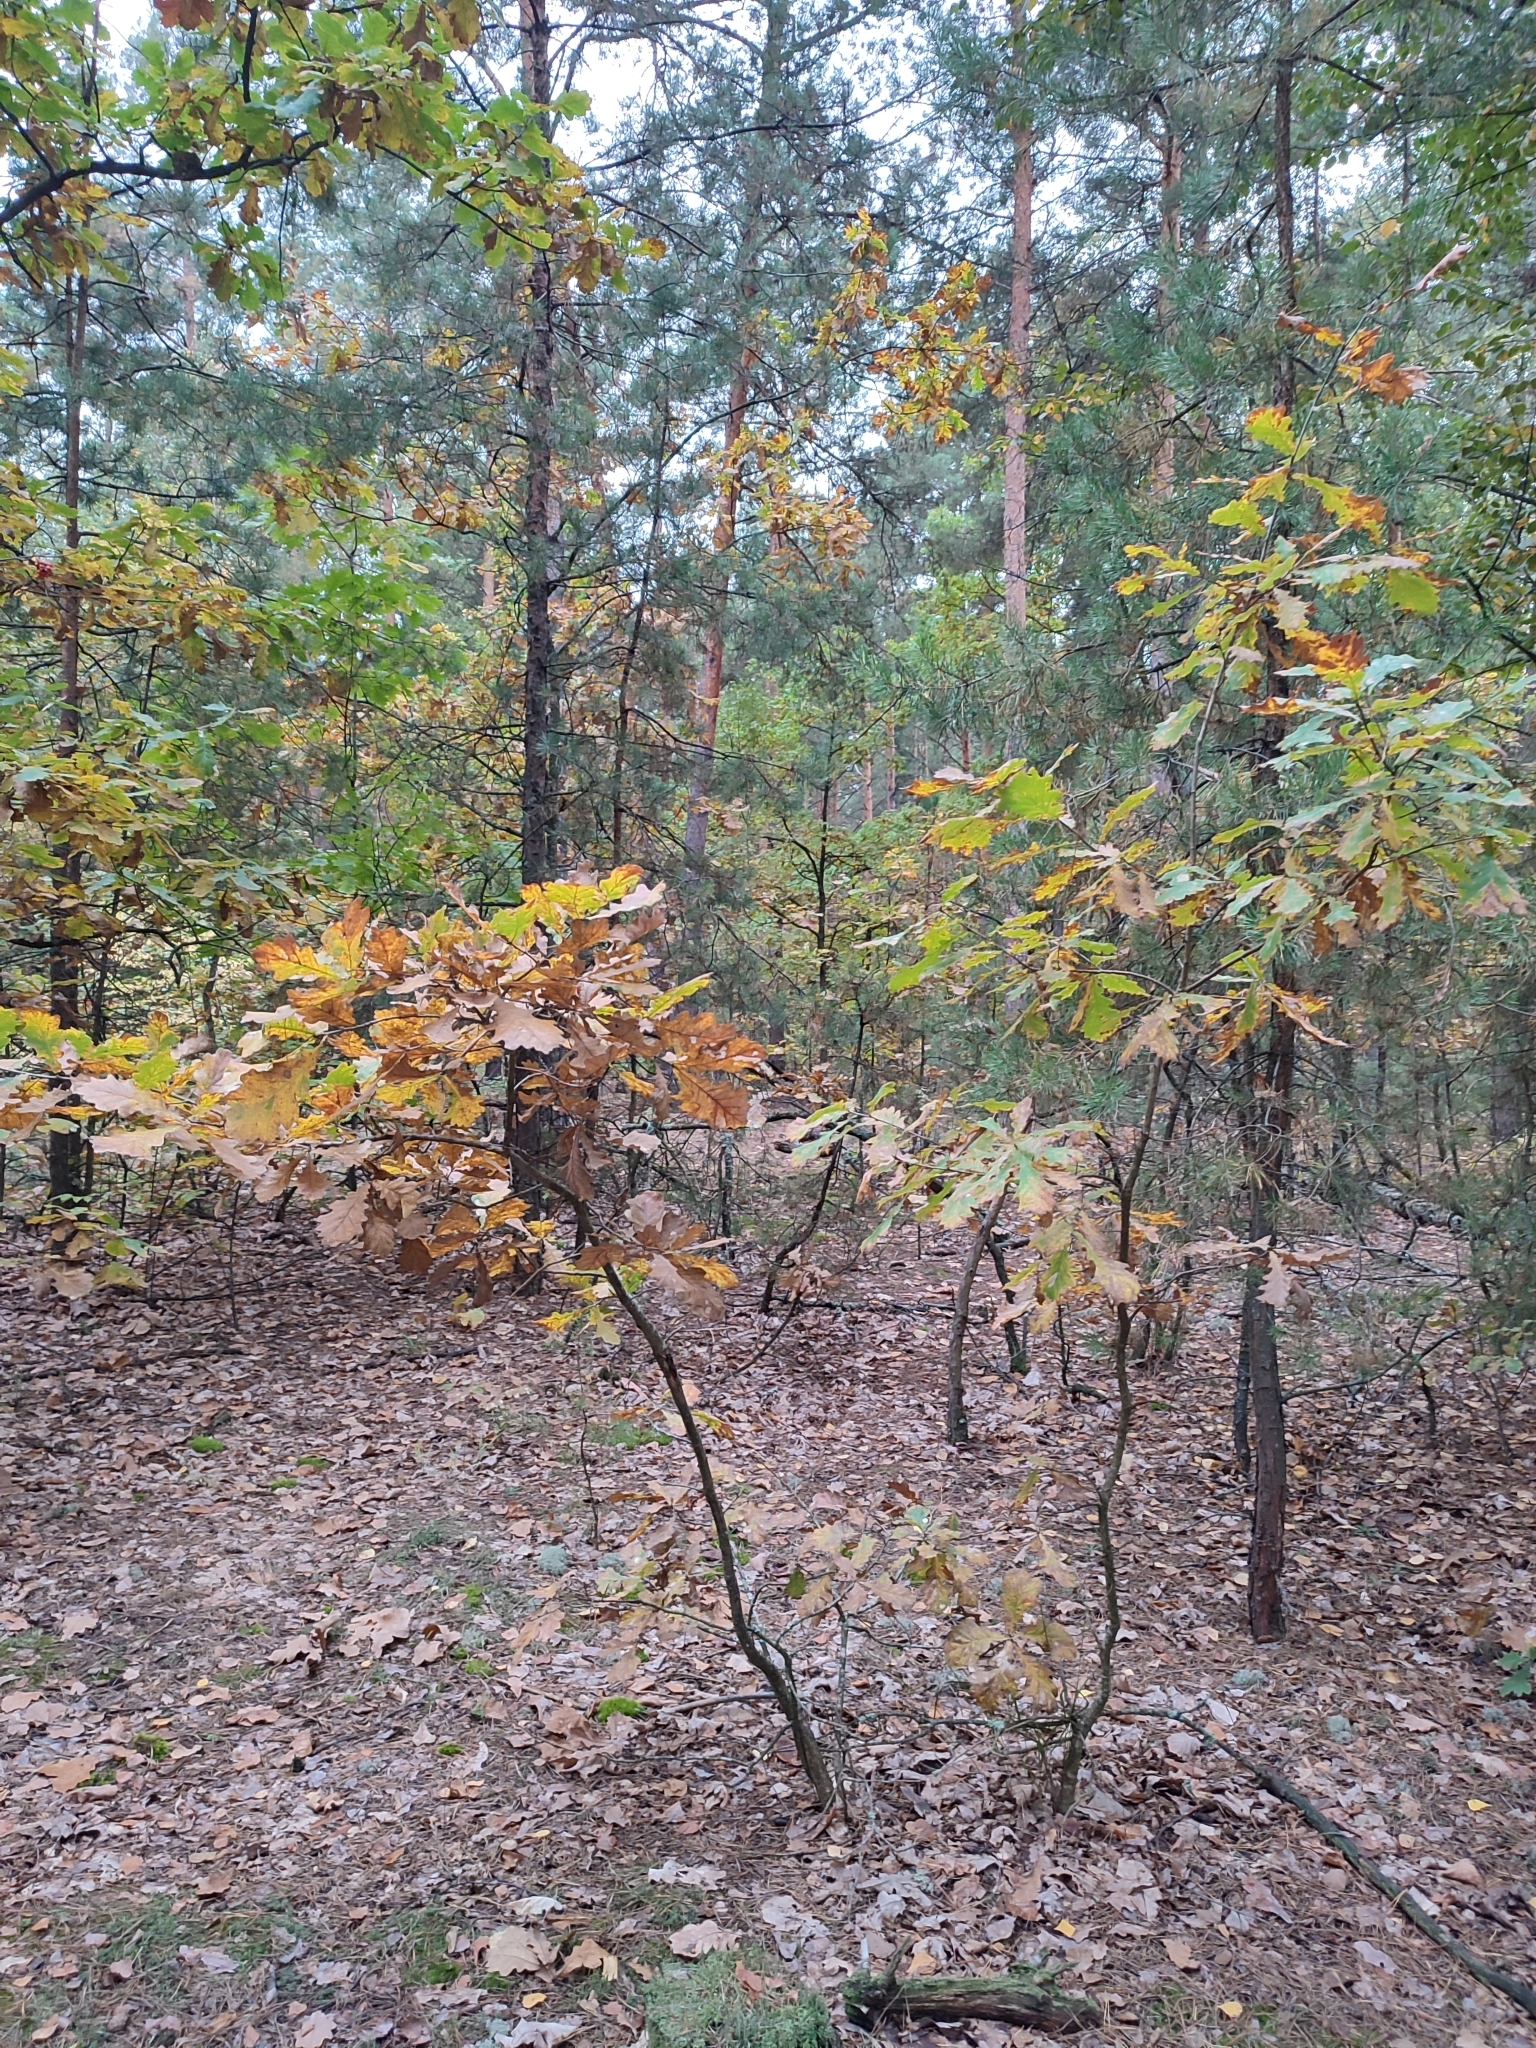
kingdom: Plantae
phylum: Tracheophyta
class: Magnoliopsida
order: Fagales
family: Fagaceae
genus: Quercus
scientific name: Quercus robur
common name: Pedunculate oak
